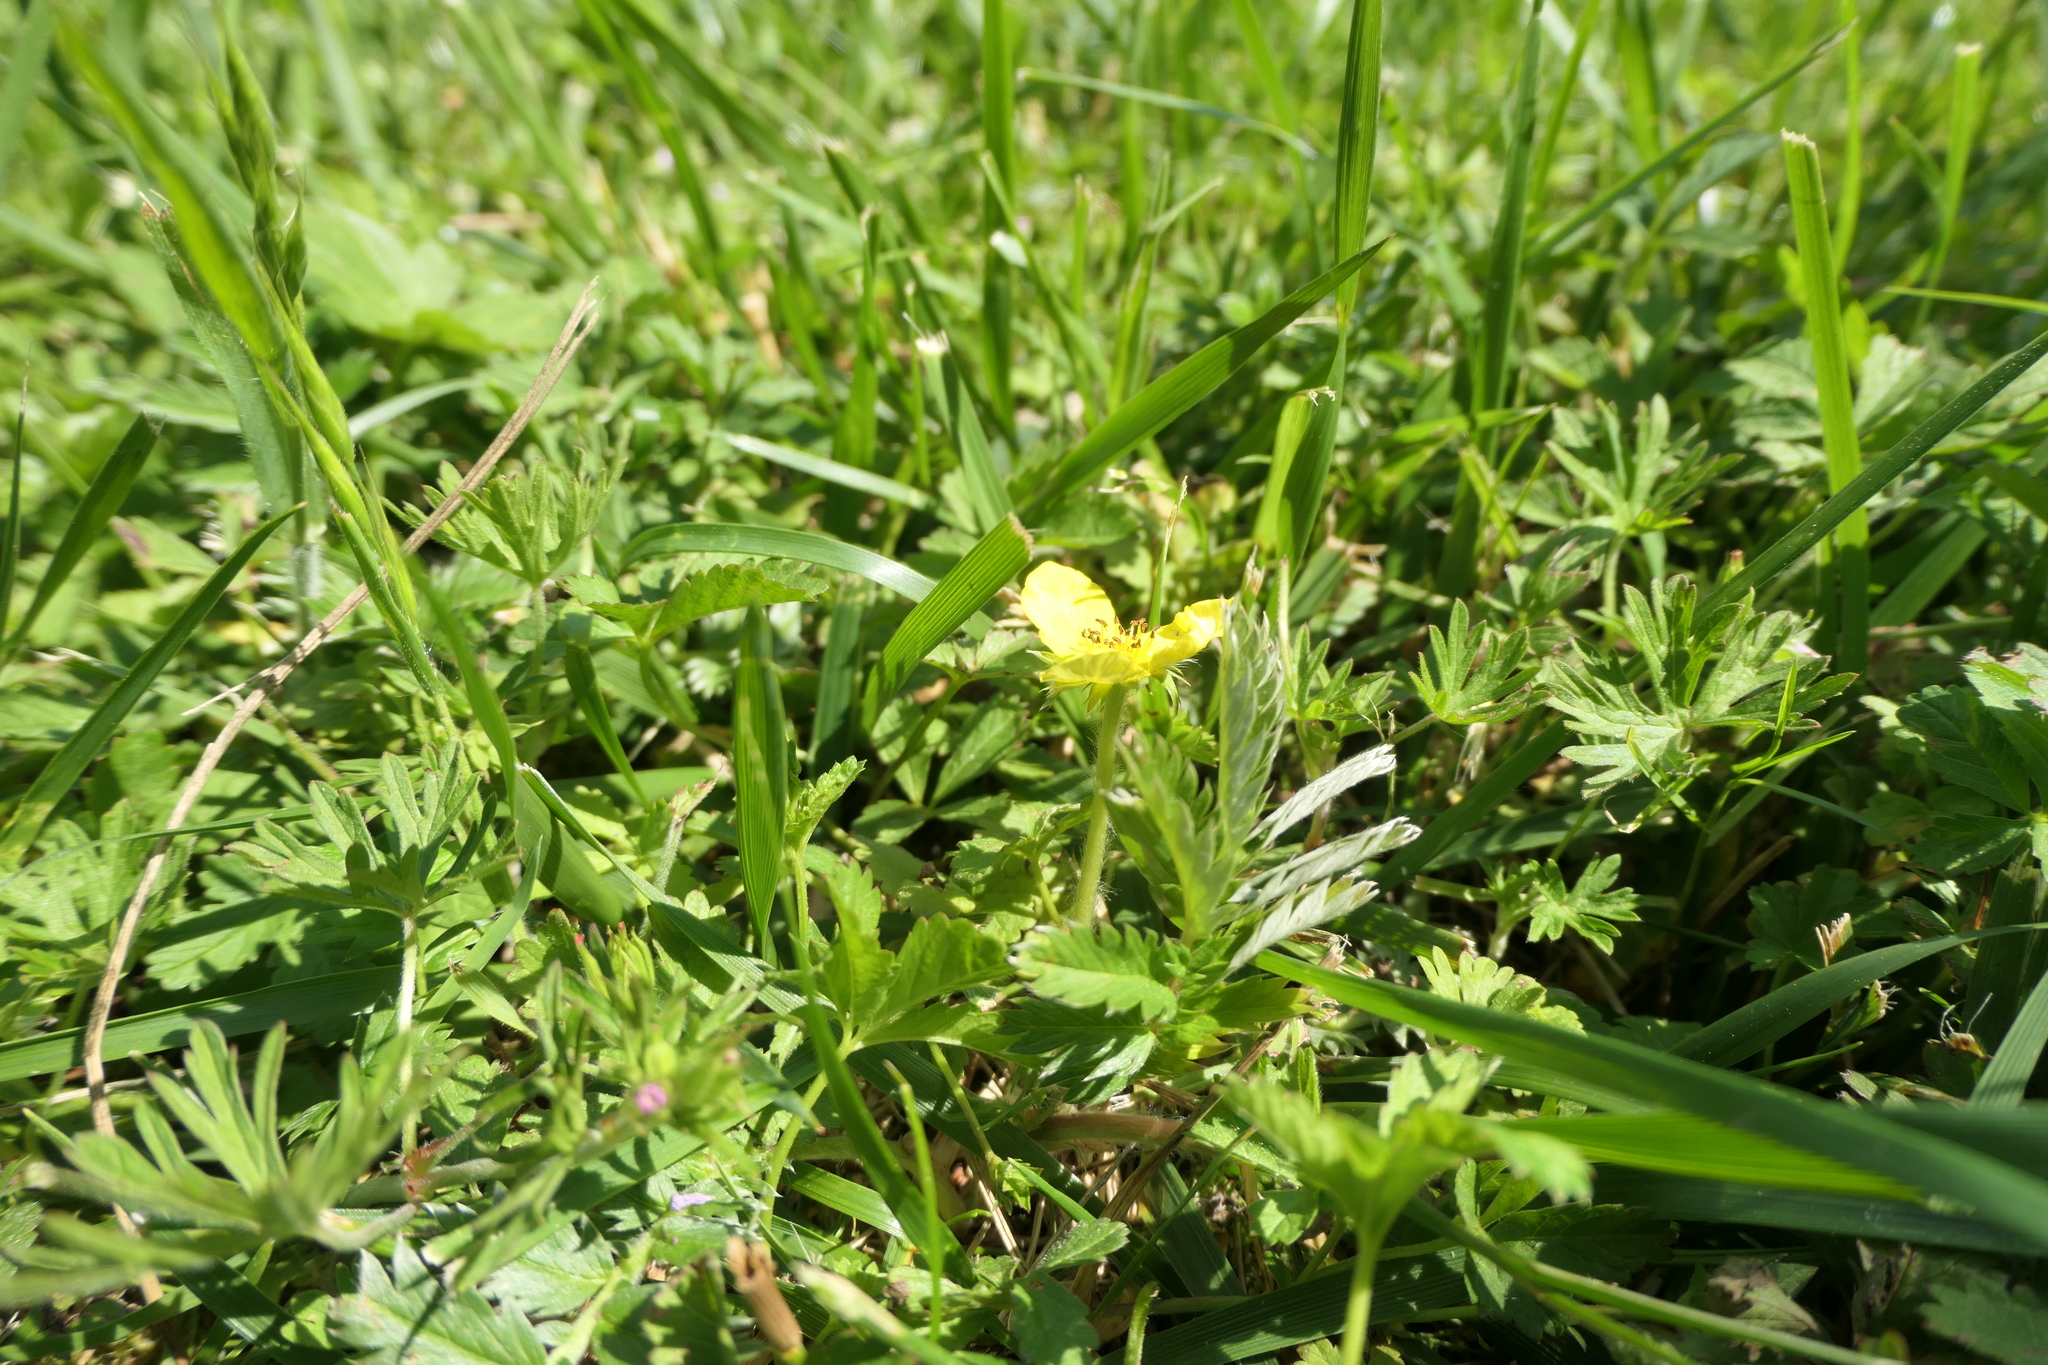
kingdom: Plantae
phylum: Tracheophyta
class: Magnoliopsida
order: Rosales
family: Rosaceae
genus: Potentilla
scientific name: Potentilla argentea
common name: Hoary cinquefoil
